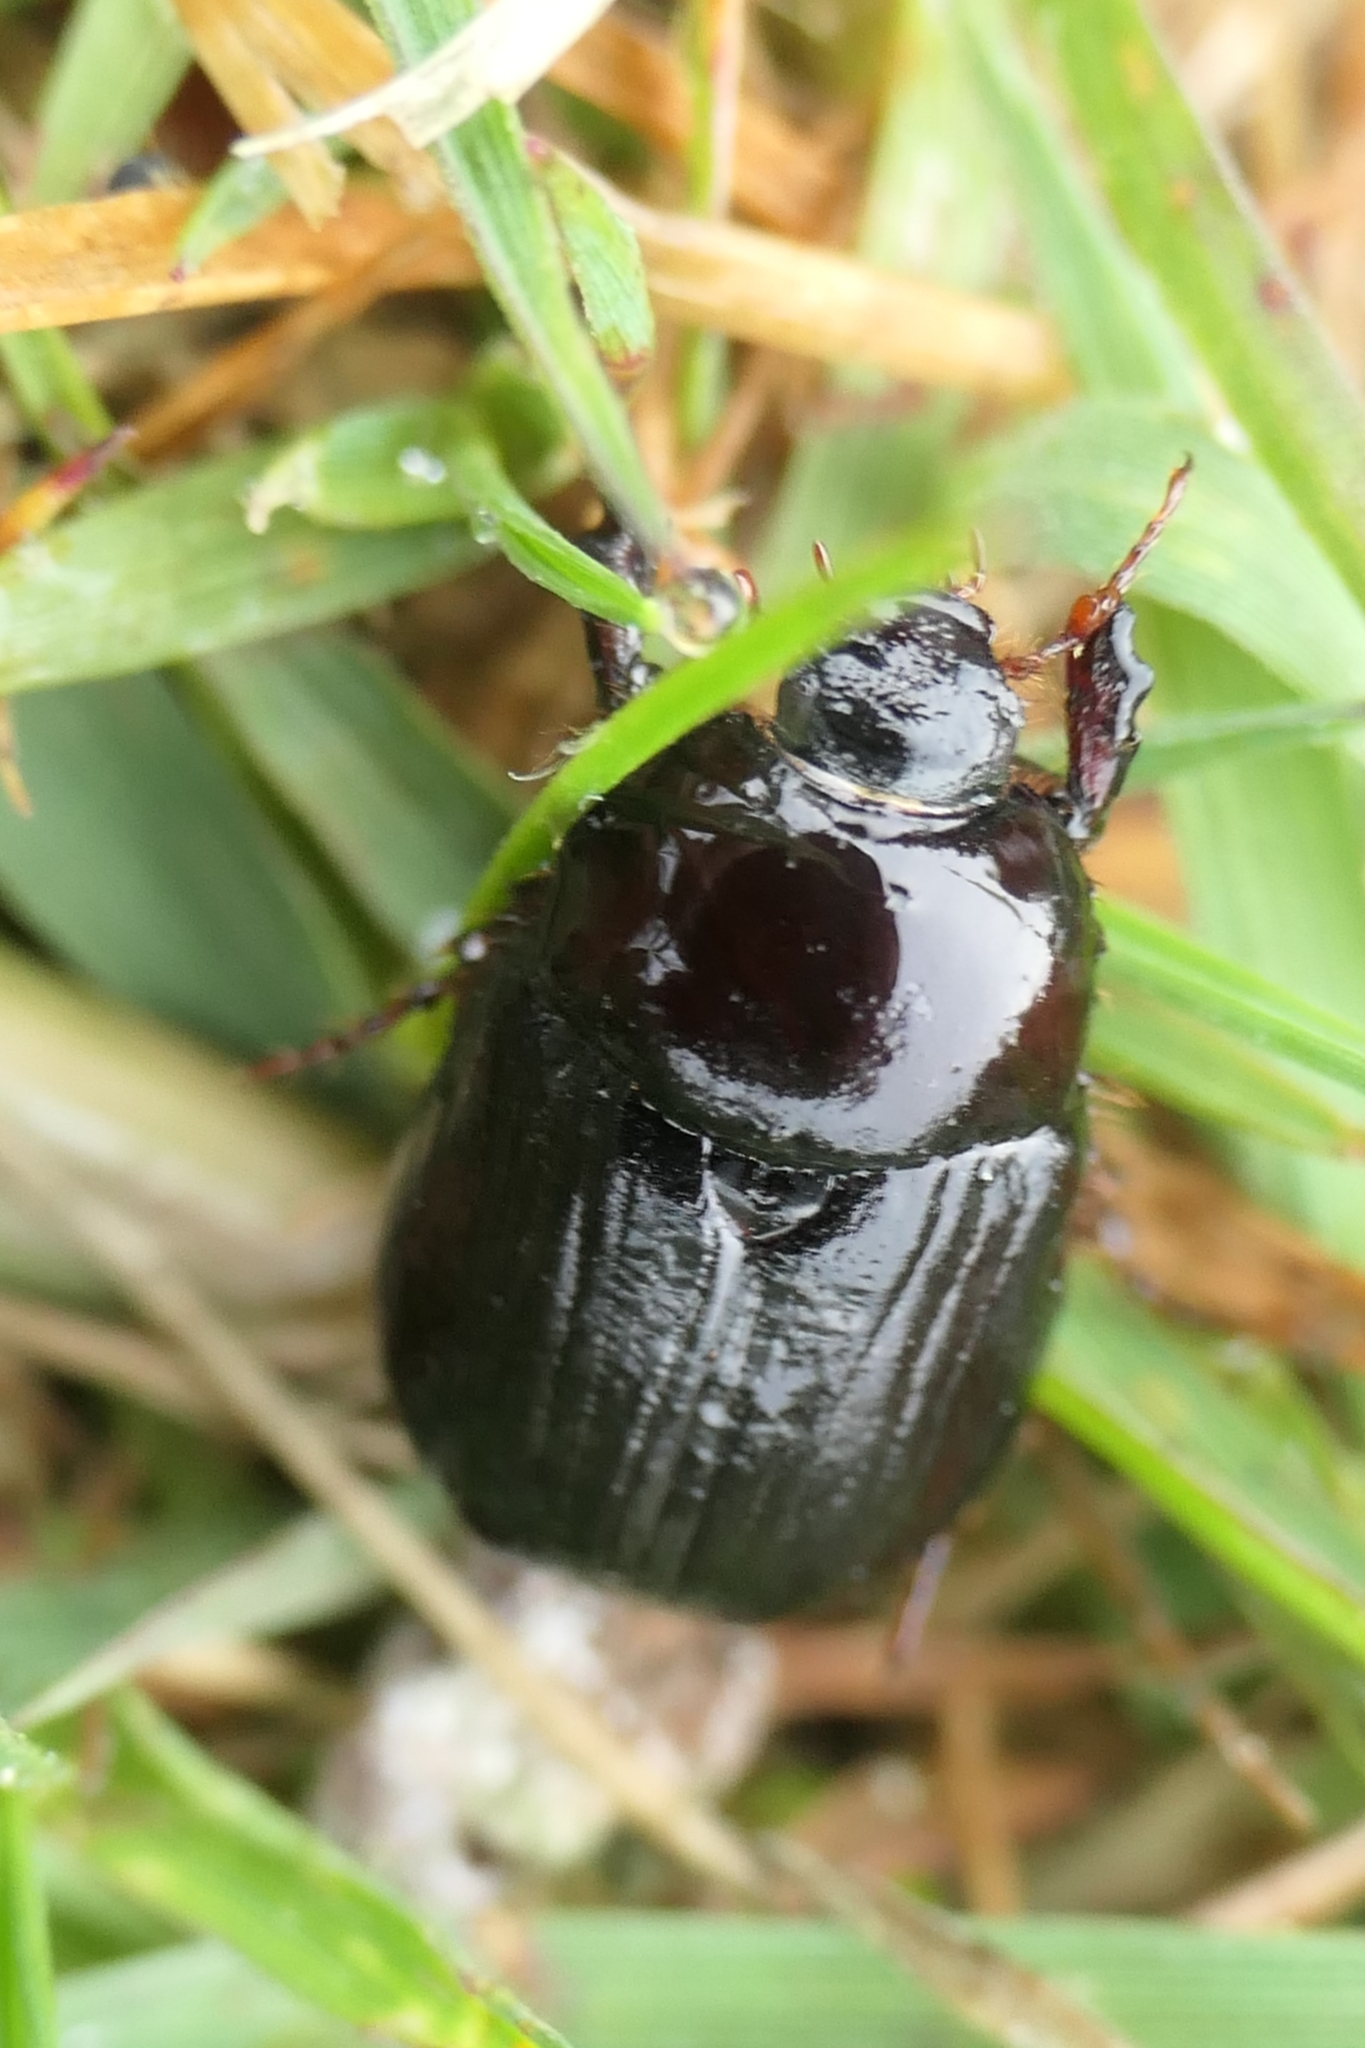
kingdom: Animalia
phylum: Arthropoda
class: Insecta
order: Coleoptera
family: Scarabaeidae
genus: Adoryphorus
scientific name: Adoryphorus couloni
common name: Redheaded pasture cockchafer
